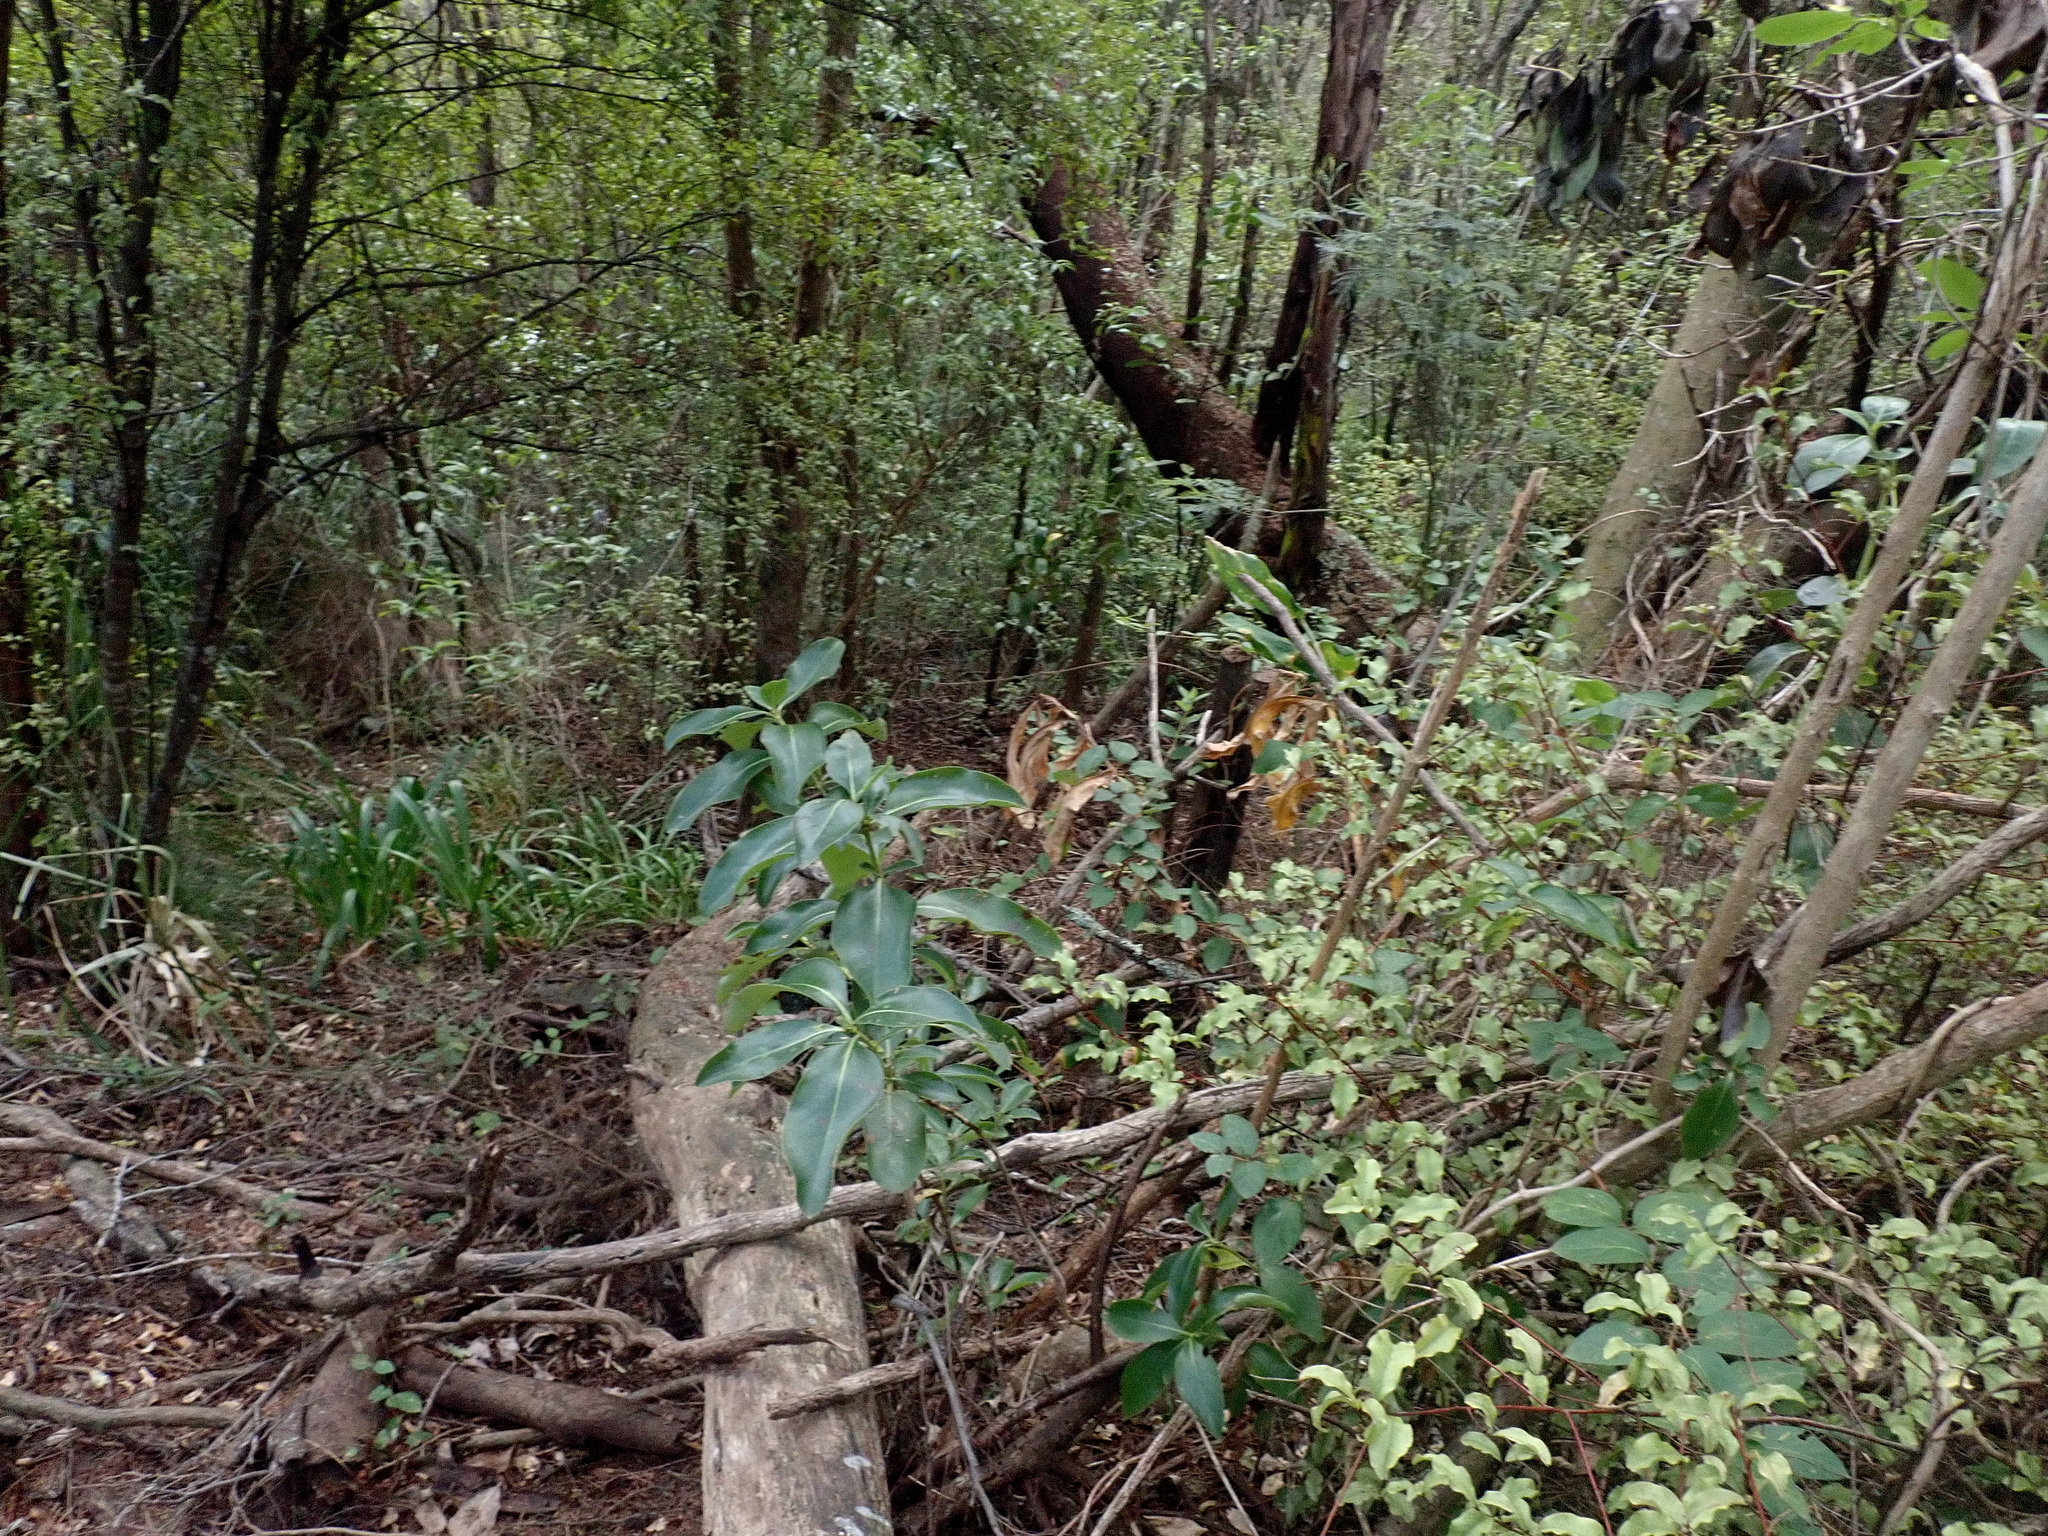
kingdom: Plantae
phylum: Tracheophyta
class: Magnoliopsida
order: Ericales
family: Primulaceae
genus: Myrsine
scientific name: Myrsine australis
